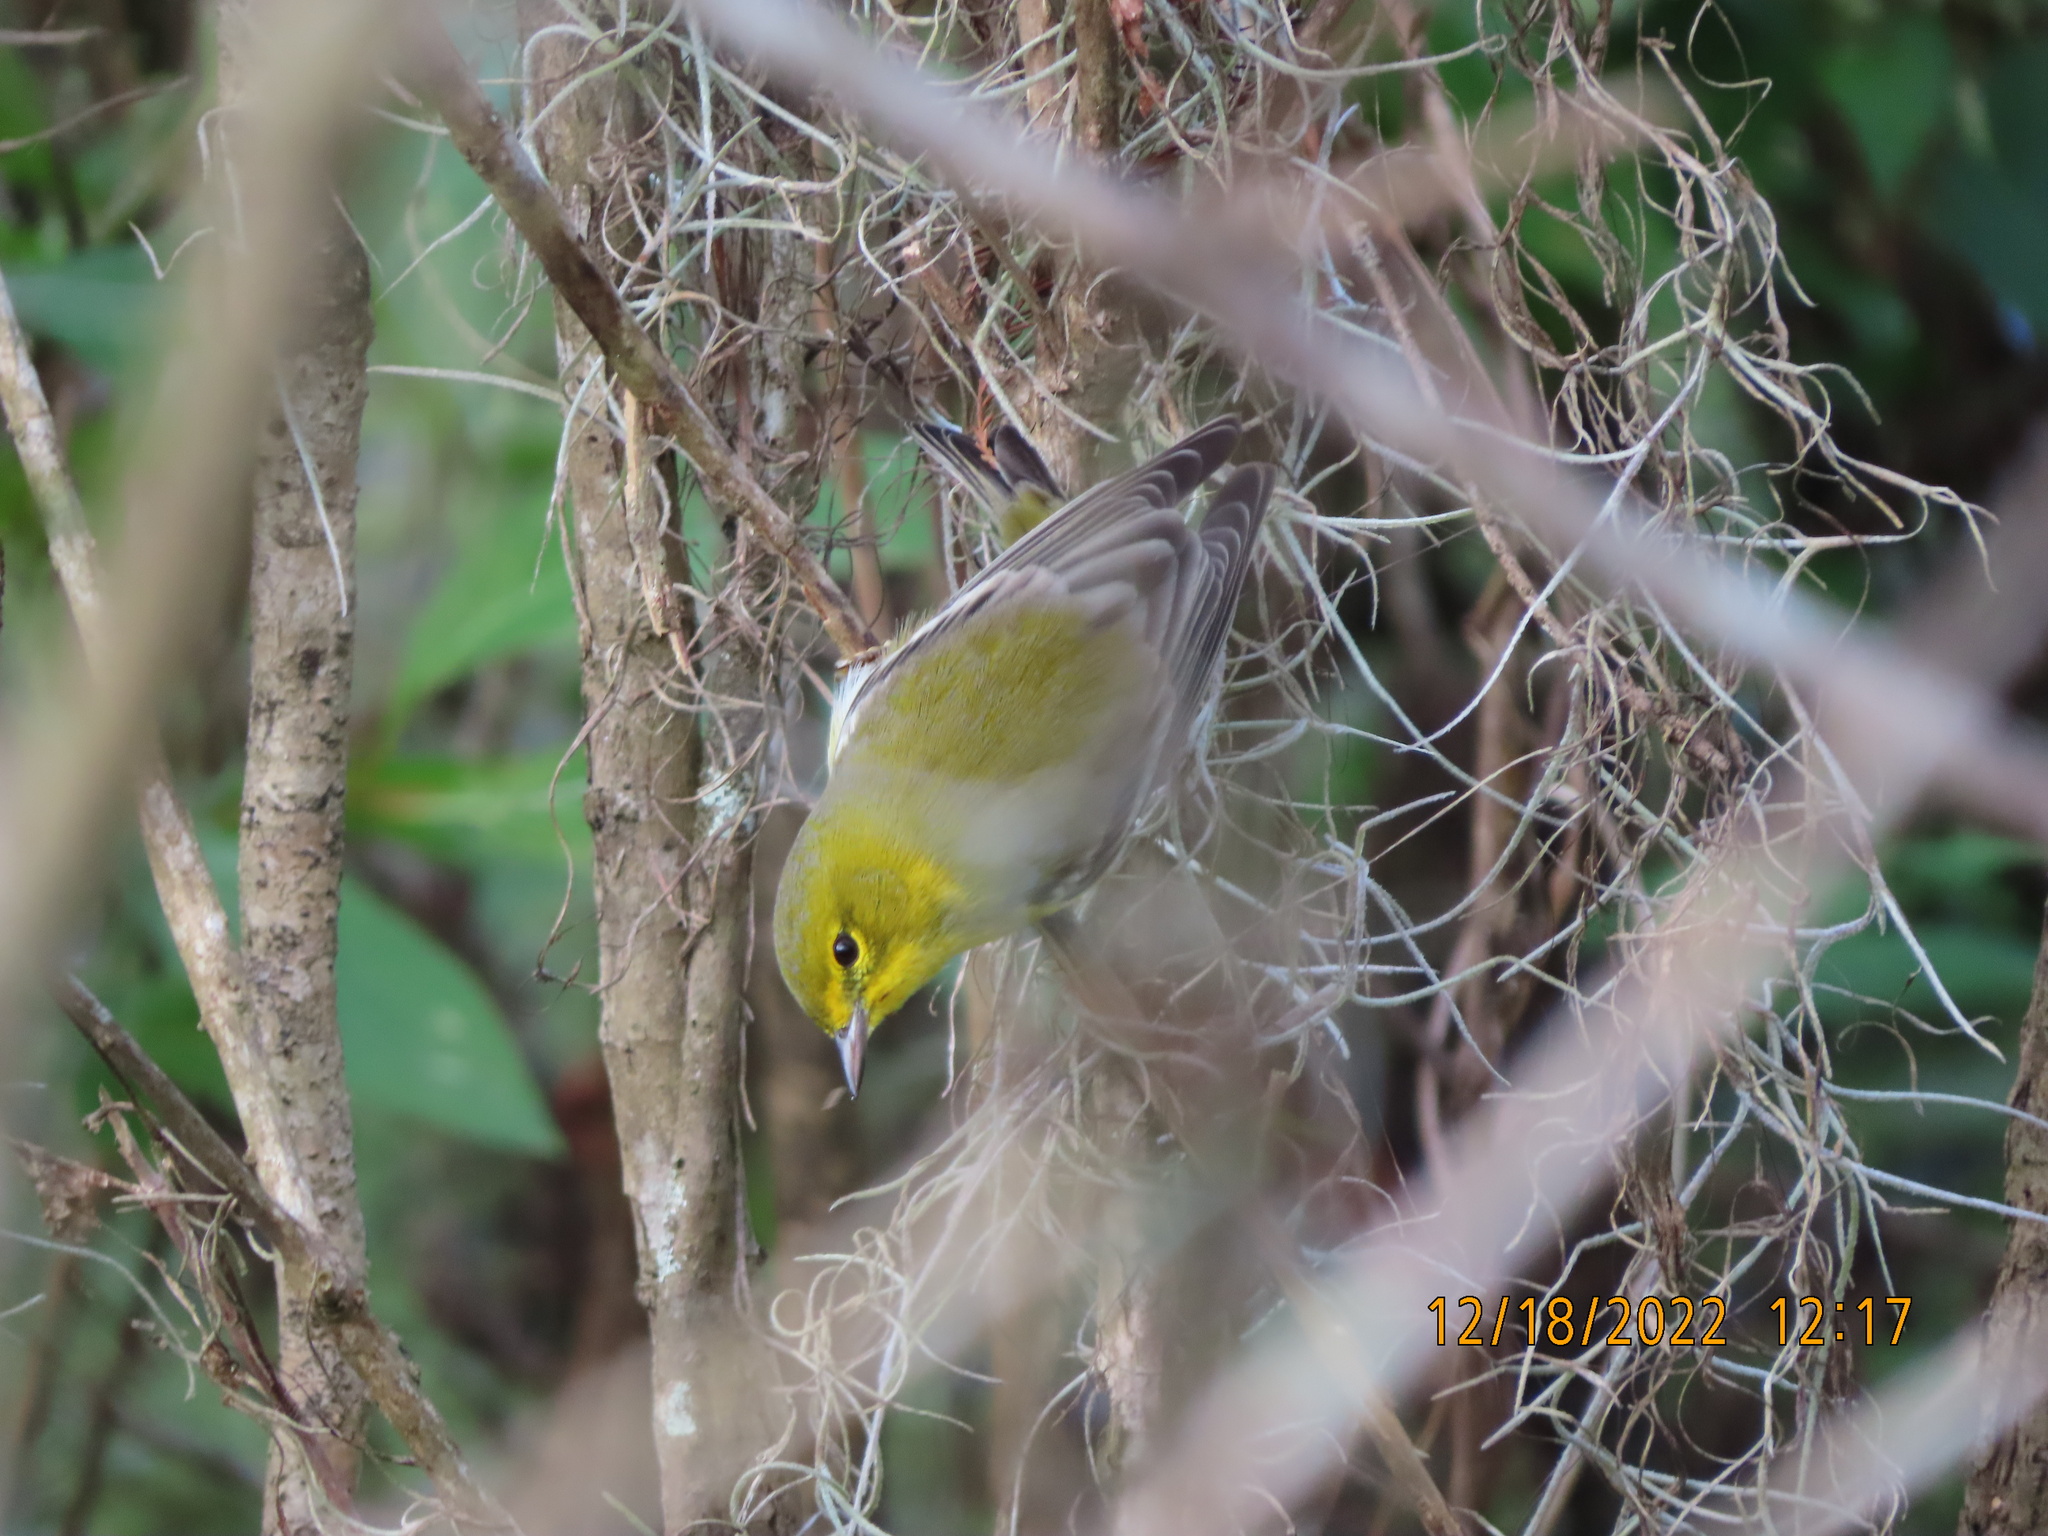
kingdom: Animalia
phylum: Chordata
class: Aves
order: Passeriformes
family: Parulidae
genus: Setophaga
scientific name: Setophaga pinus
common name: Pine warbler
